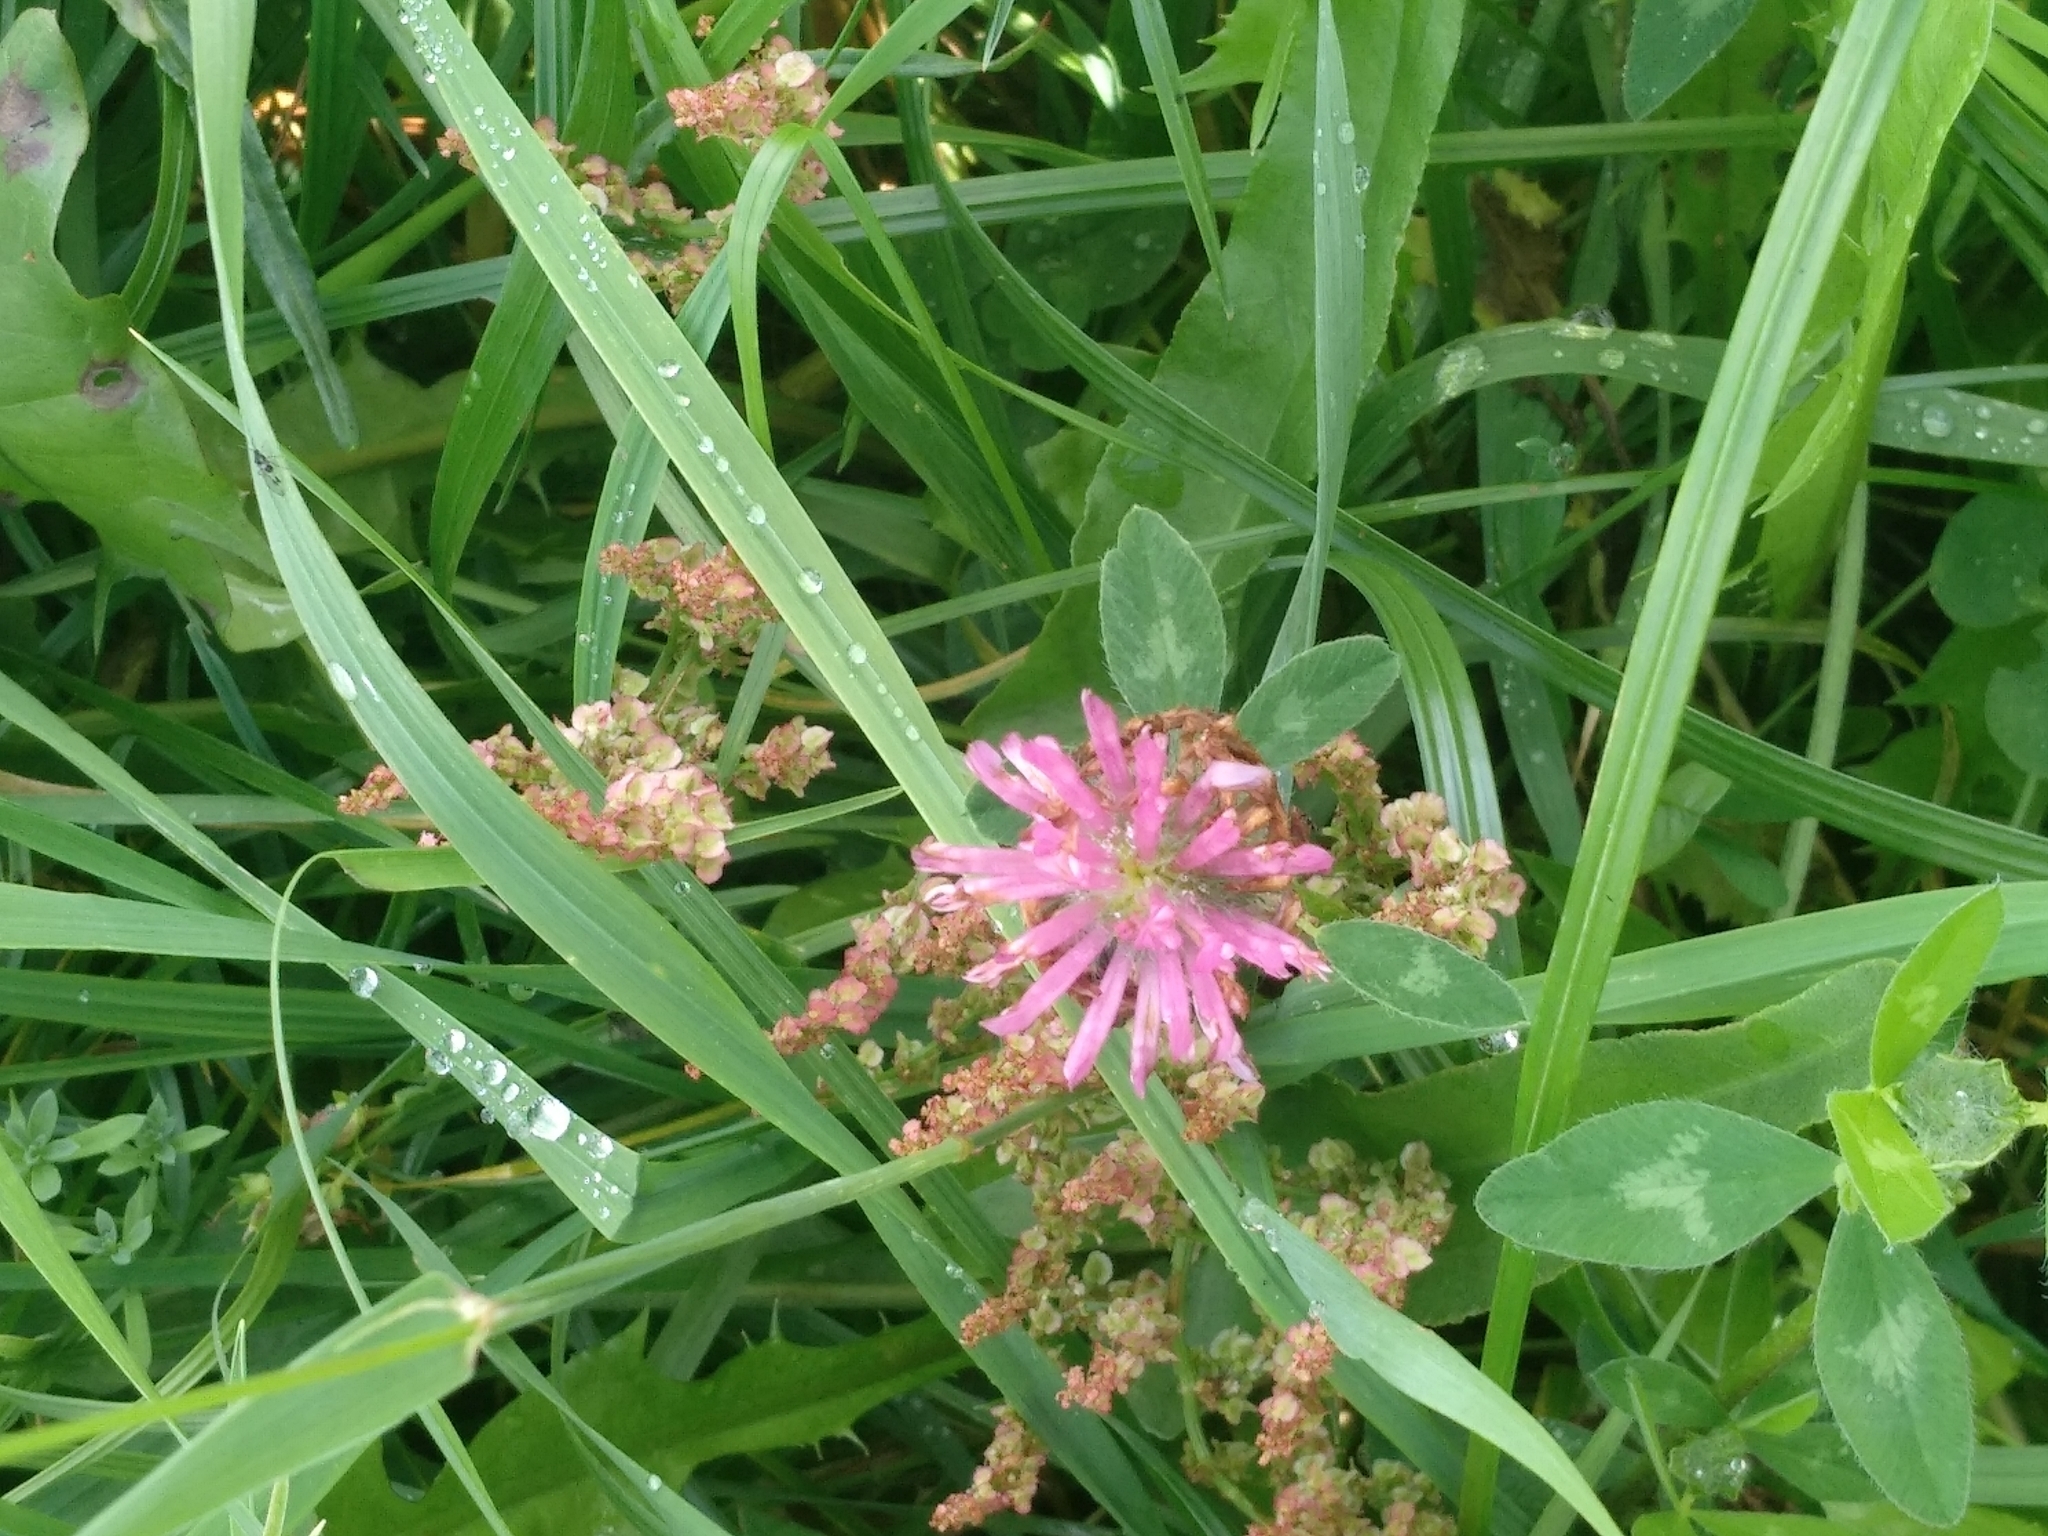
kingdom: Plantae
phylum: Tracheophyta
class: Magnoliopsida
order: Fabales
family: Fabaceae
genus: Trifolium
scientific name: Trifolium pratense
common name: Red clover
